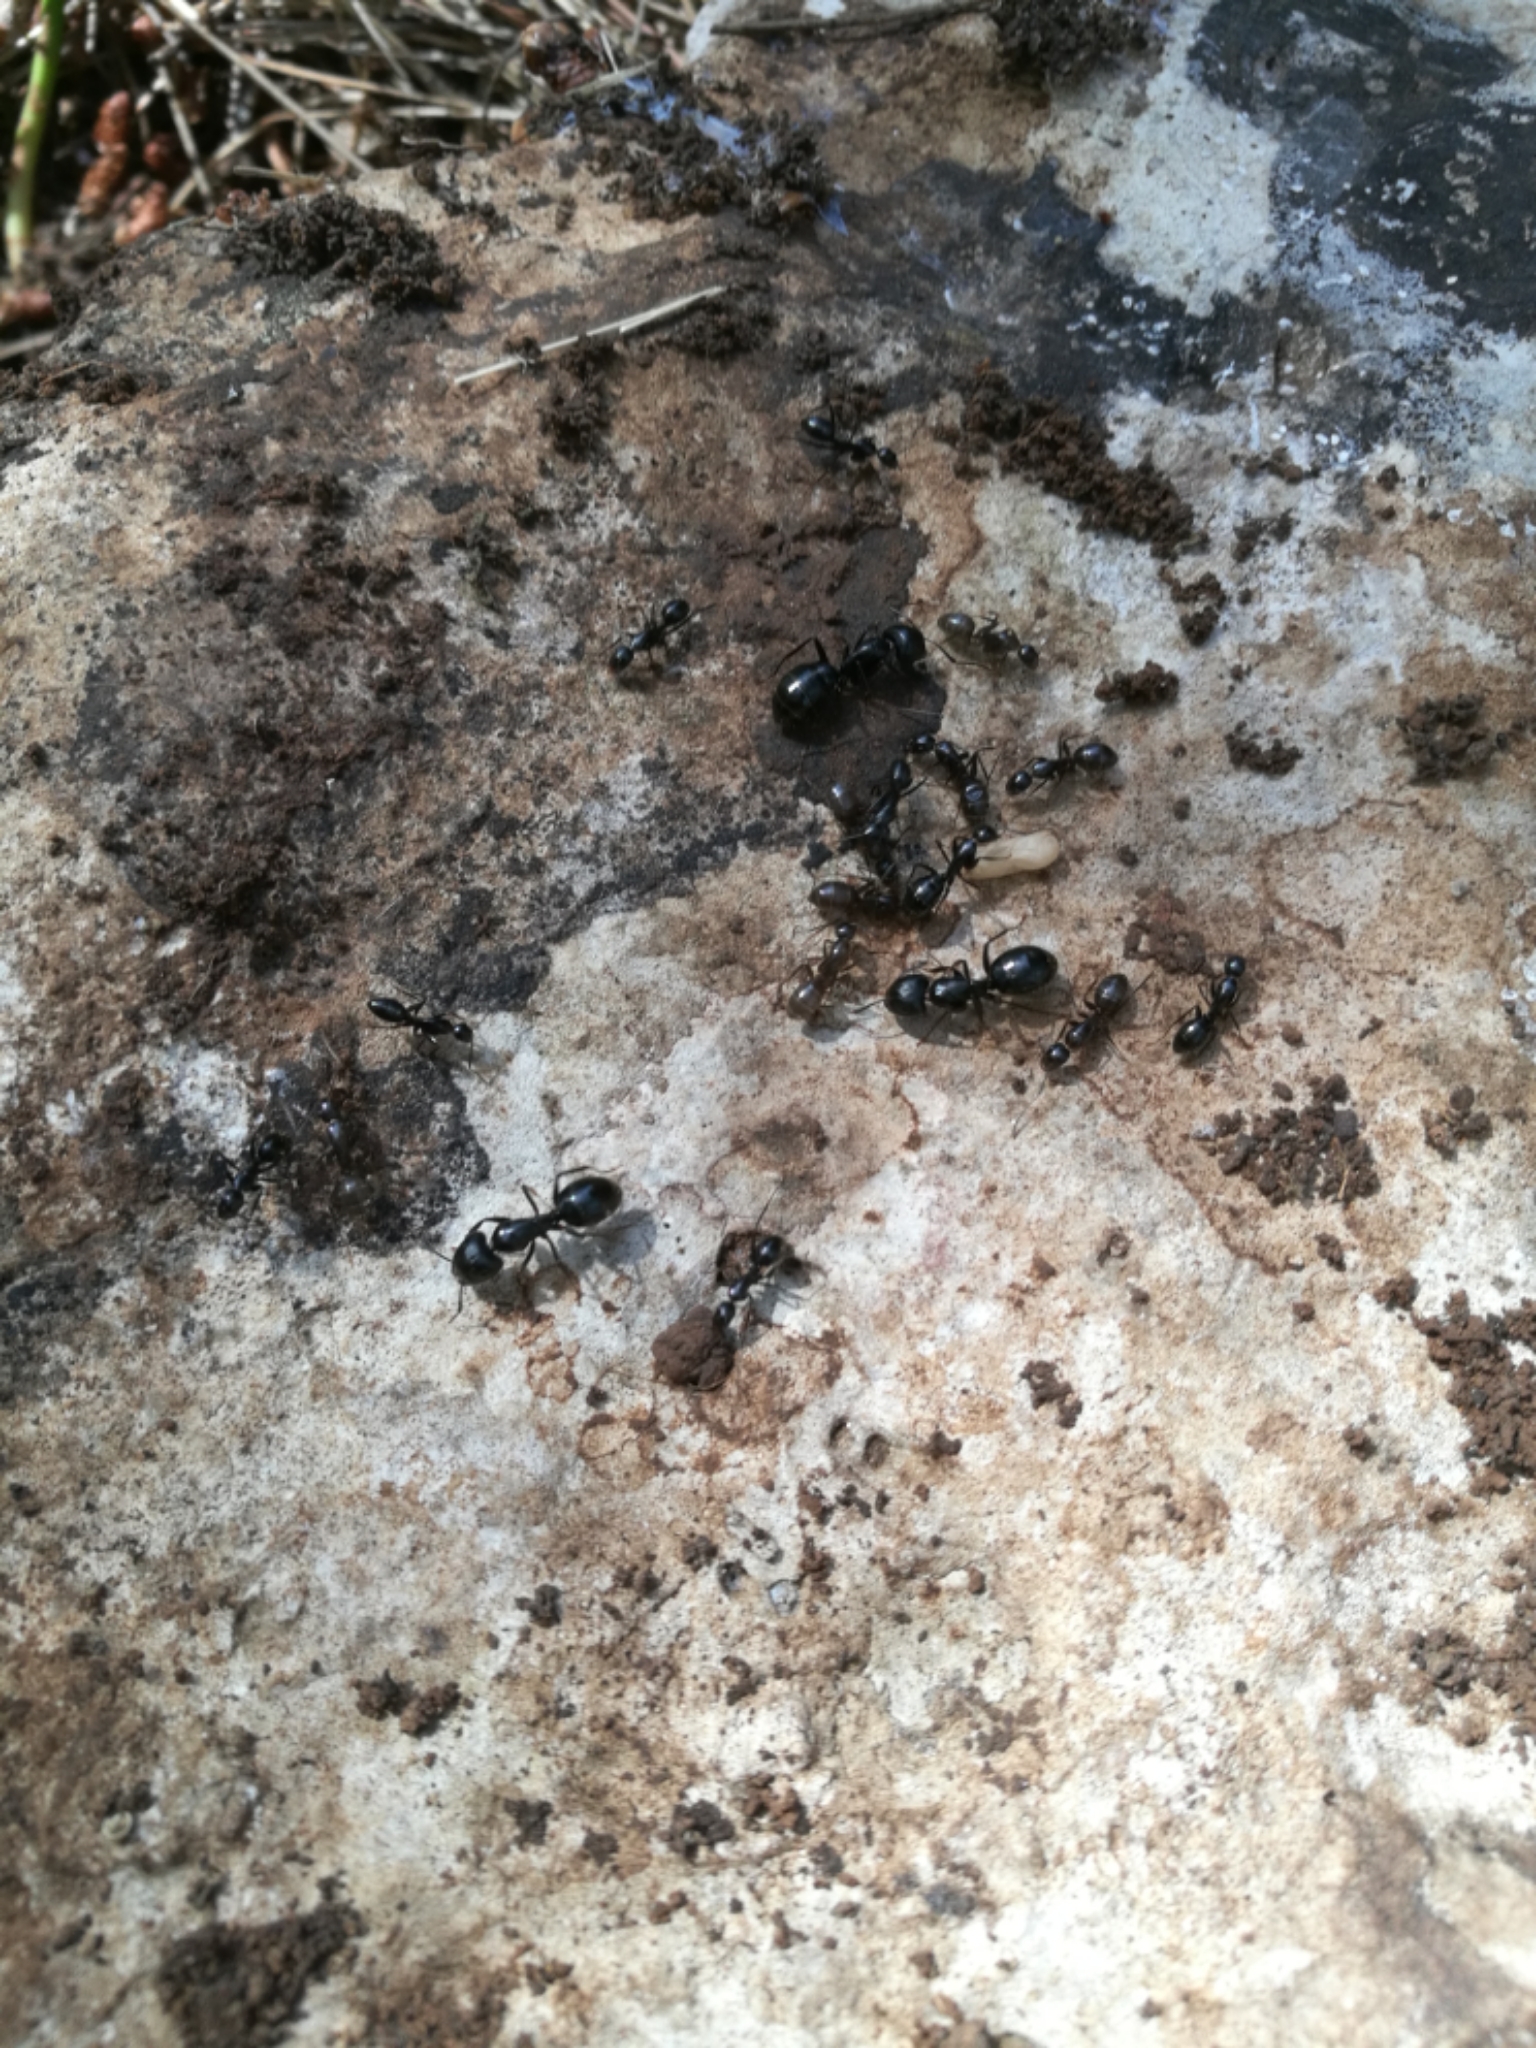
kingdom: Animalia
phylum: Arthropoda
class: Insecta
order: Hymenoptera
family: Formicidae
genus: Camponotus
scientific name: Camponotus aethiops
